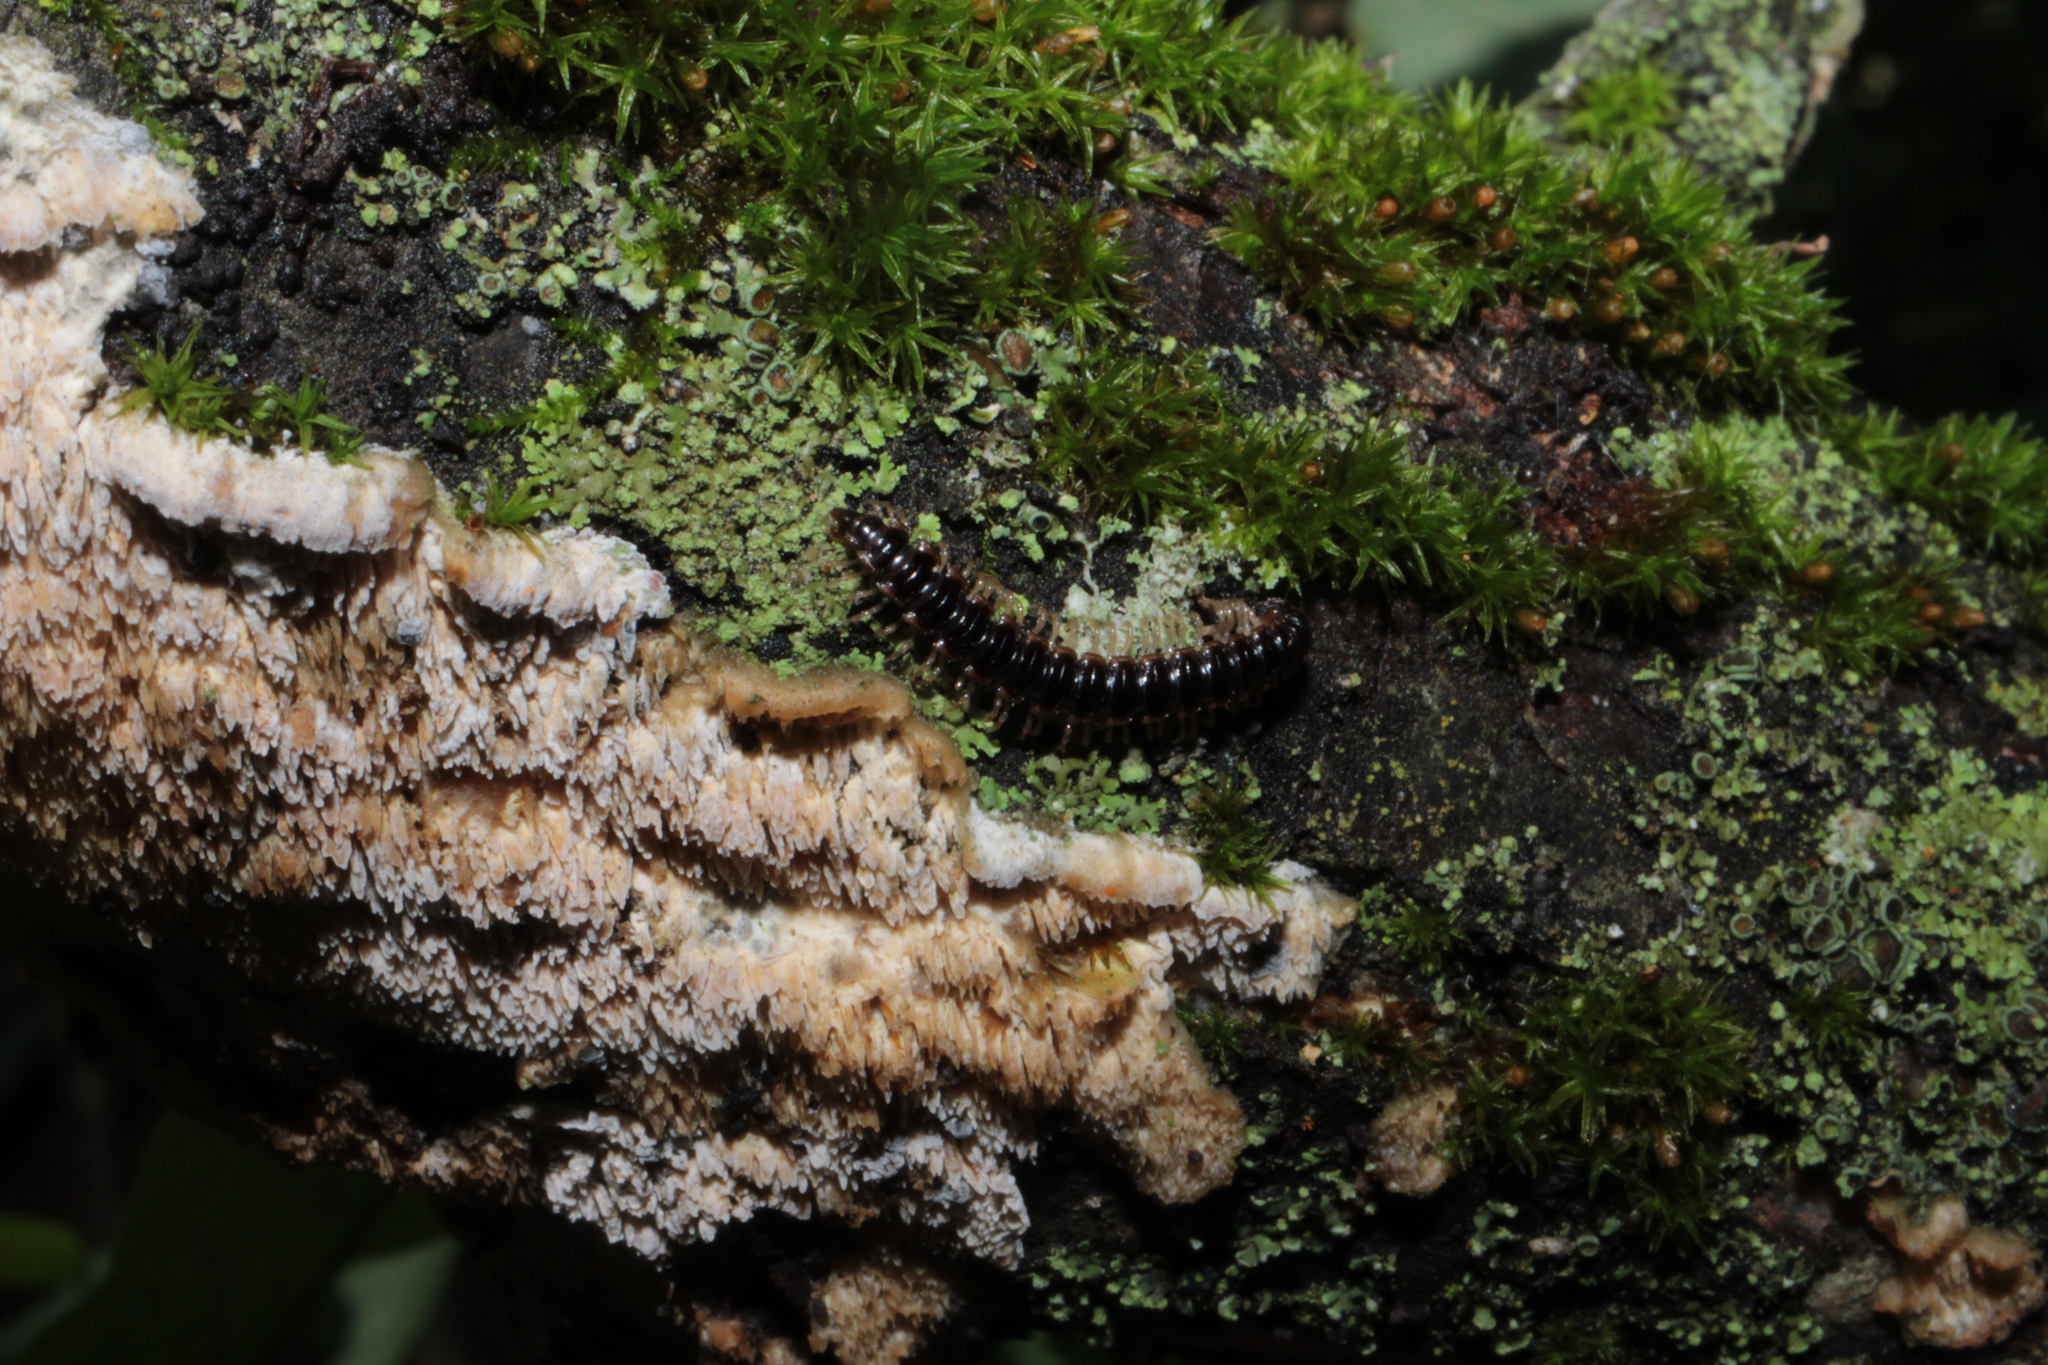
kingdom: Animalia
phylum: Arthropoda
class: Diplopoda
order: Polydesmida
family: Paradoxosomatidae
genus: Oxidus
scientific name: Oxidus gracilis
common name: Greenhouse millipede
